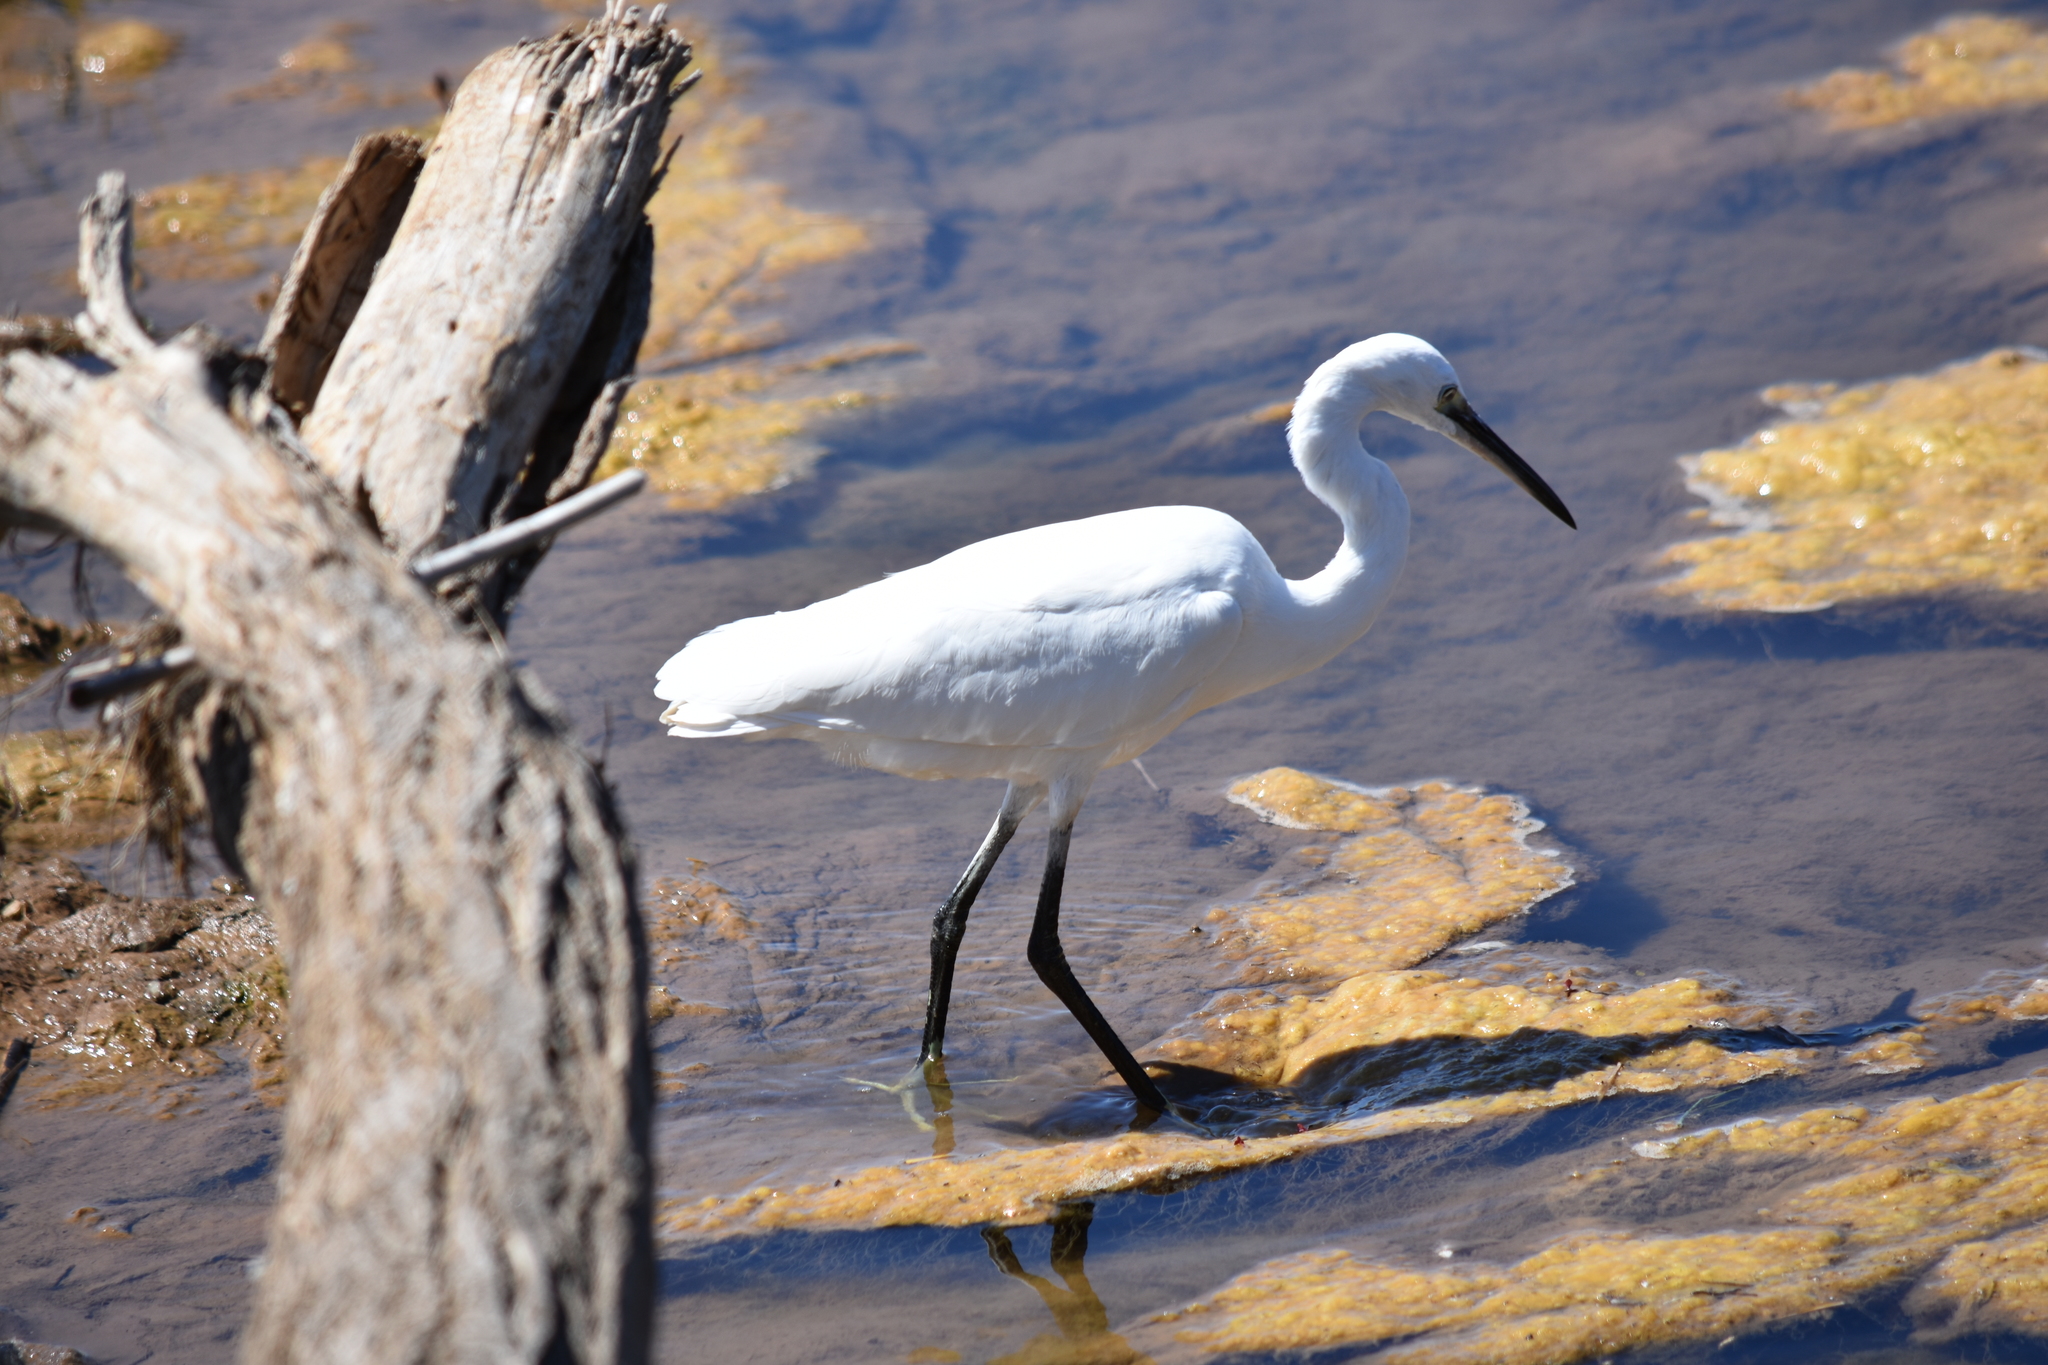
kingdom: Animalia
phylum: Chordata
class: Aves
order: Pelecaniformes
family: Ardeidae
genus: Egretta
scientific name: Egretta garzetta
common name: Little egret
